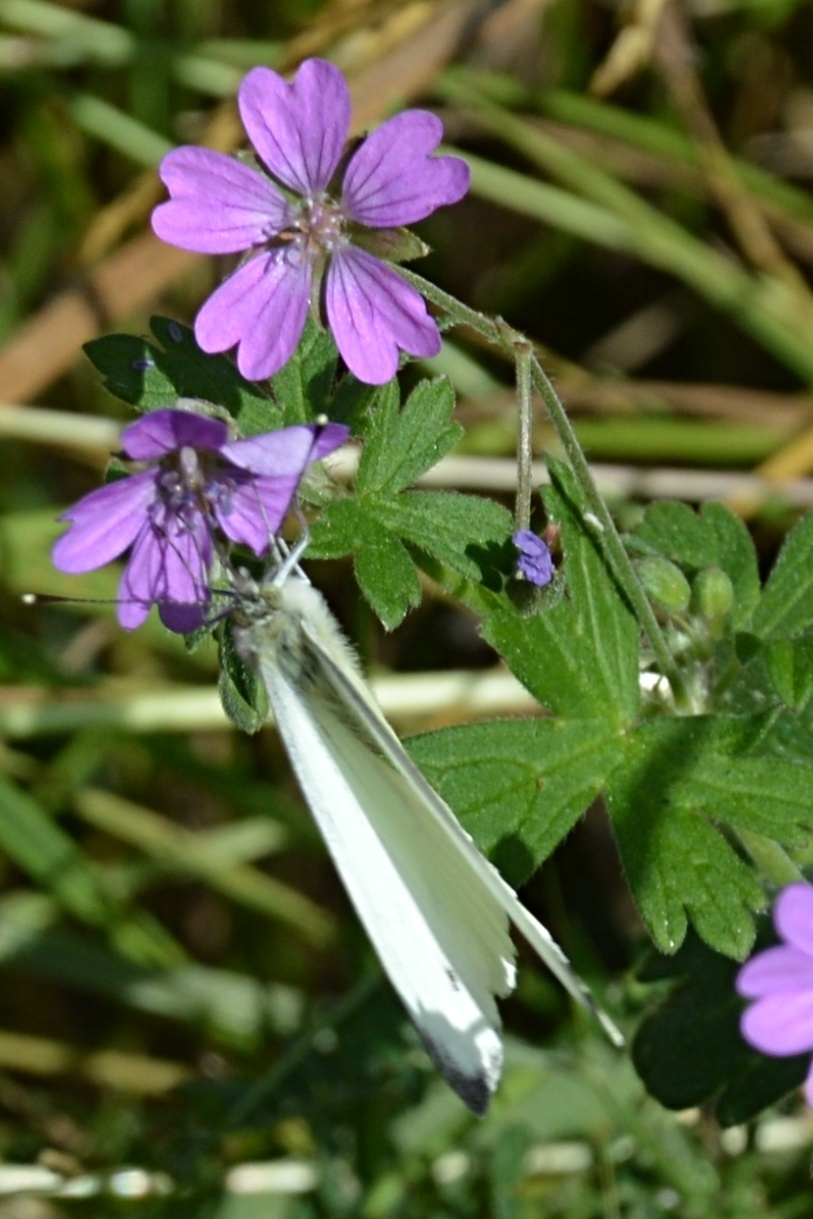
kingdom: Plantae
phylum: Tracheophyta
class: Magnoliopsida
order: Geraniales
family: Geraniaceae
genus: Geranium
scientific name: Geranium pyrenaicum
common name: Hedgerow crane's-bill
